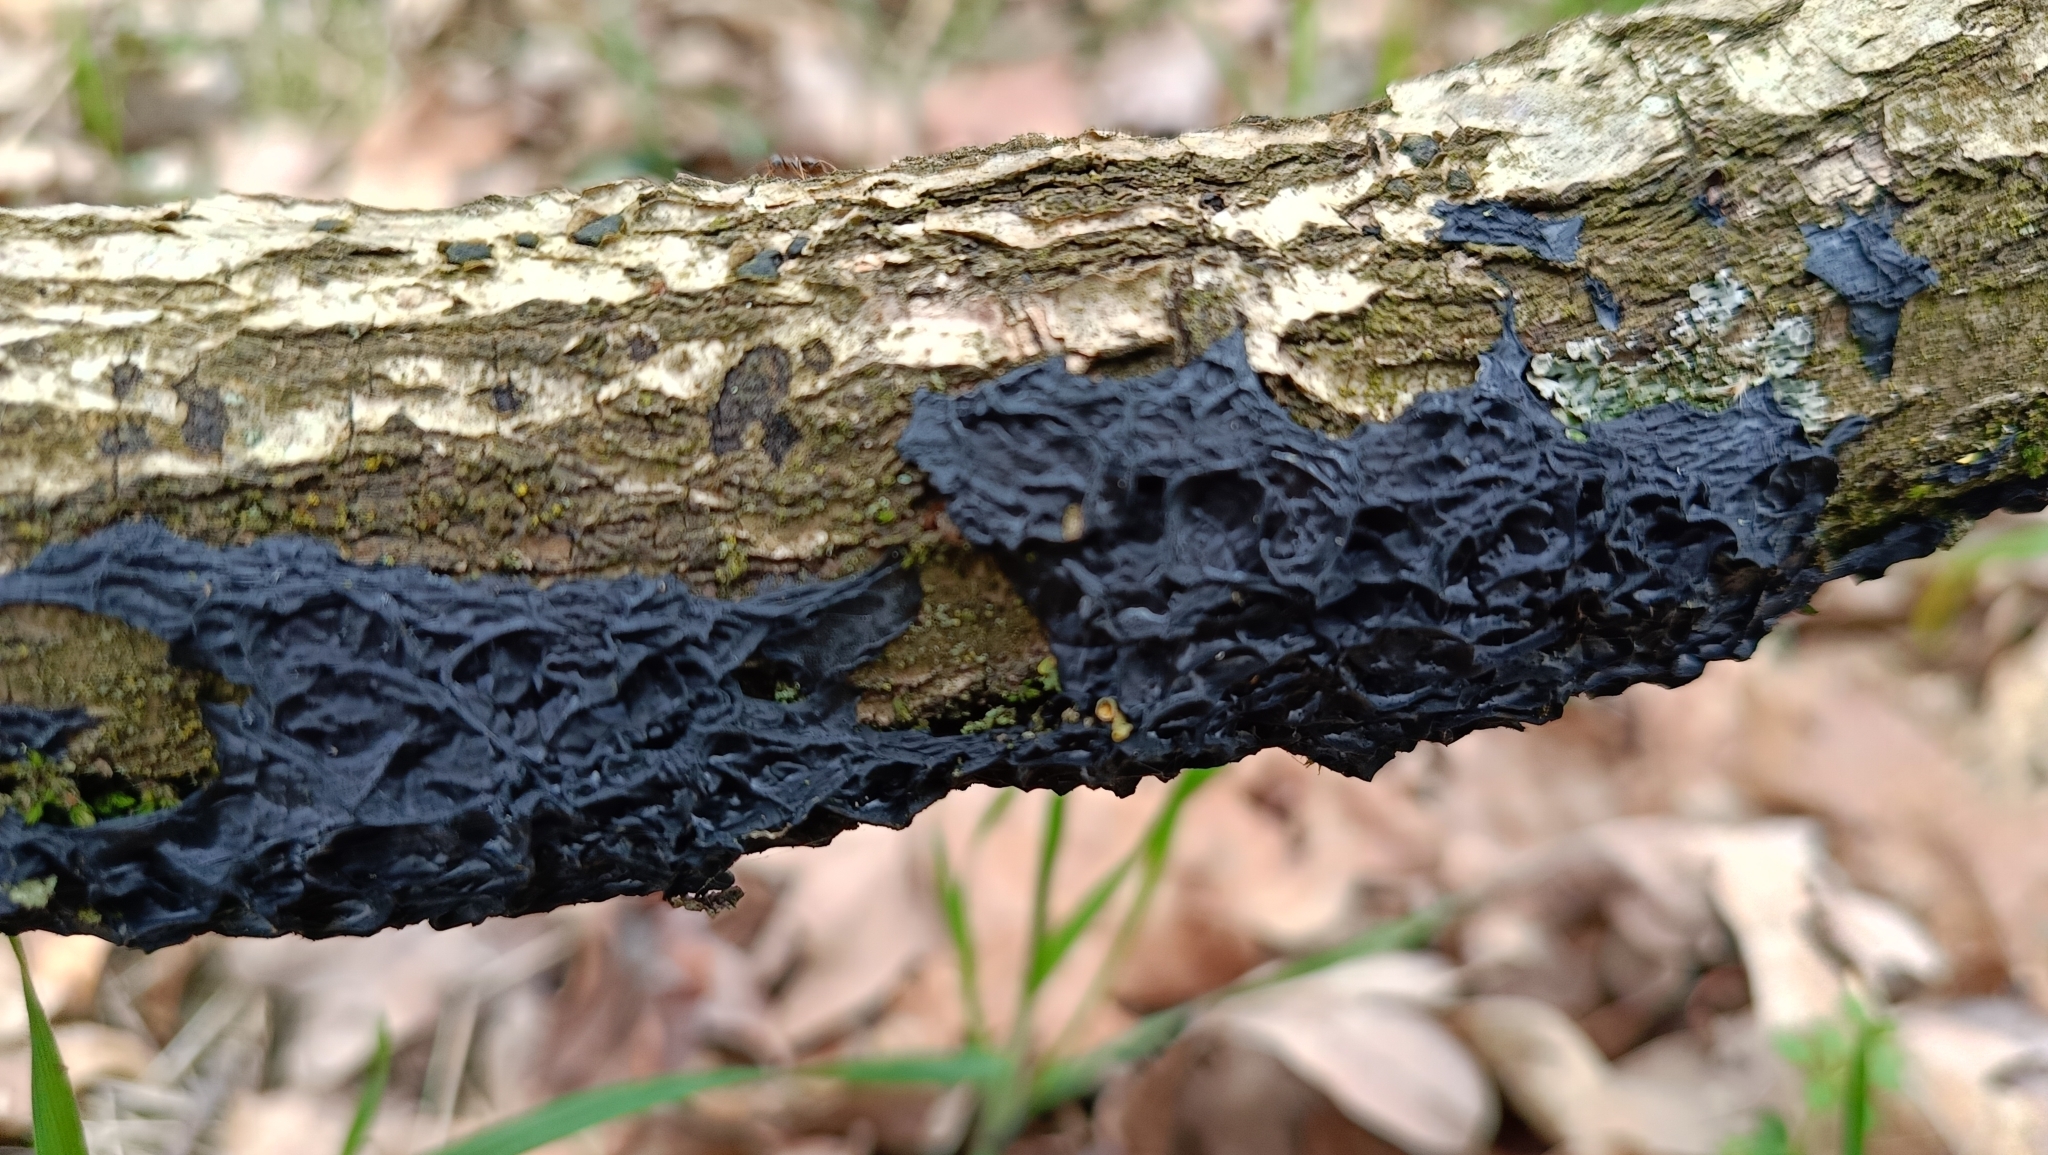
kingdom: Fungi
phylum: Basidiomycota
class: Agaricomycetes
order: Auriculariales
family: Auriculariaceae
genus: Exidia
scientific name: Exidia nigricans
